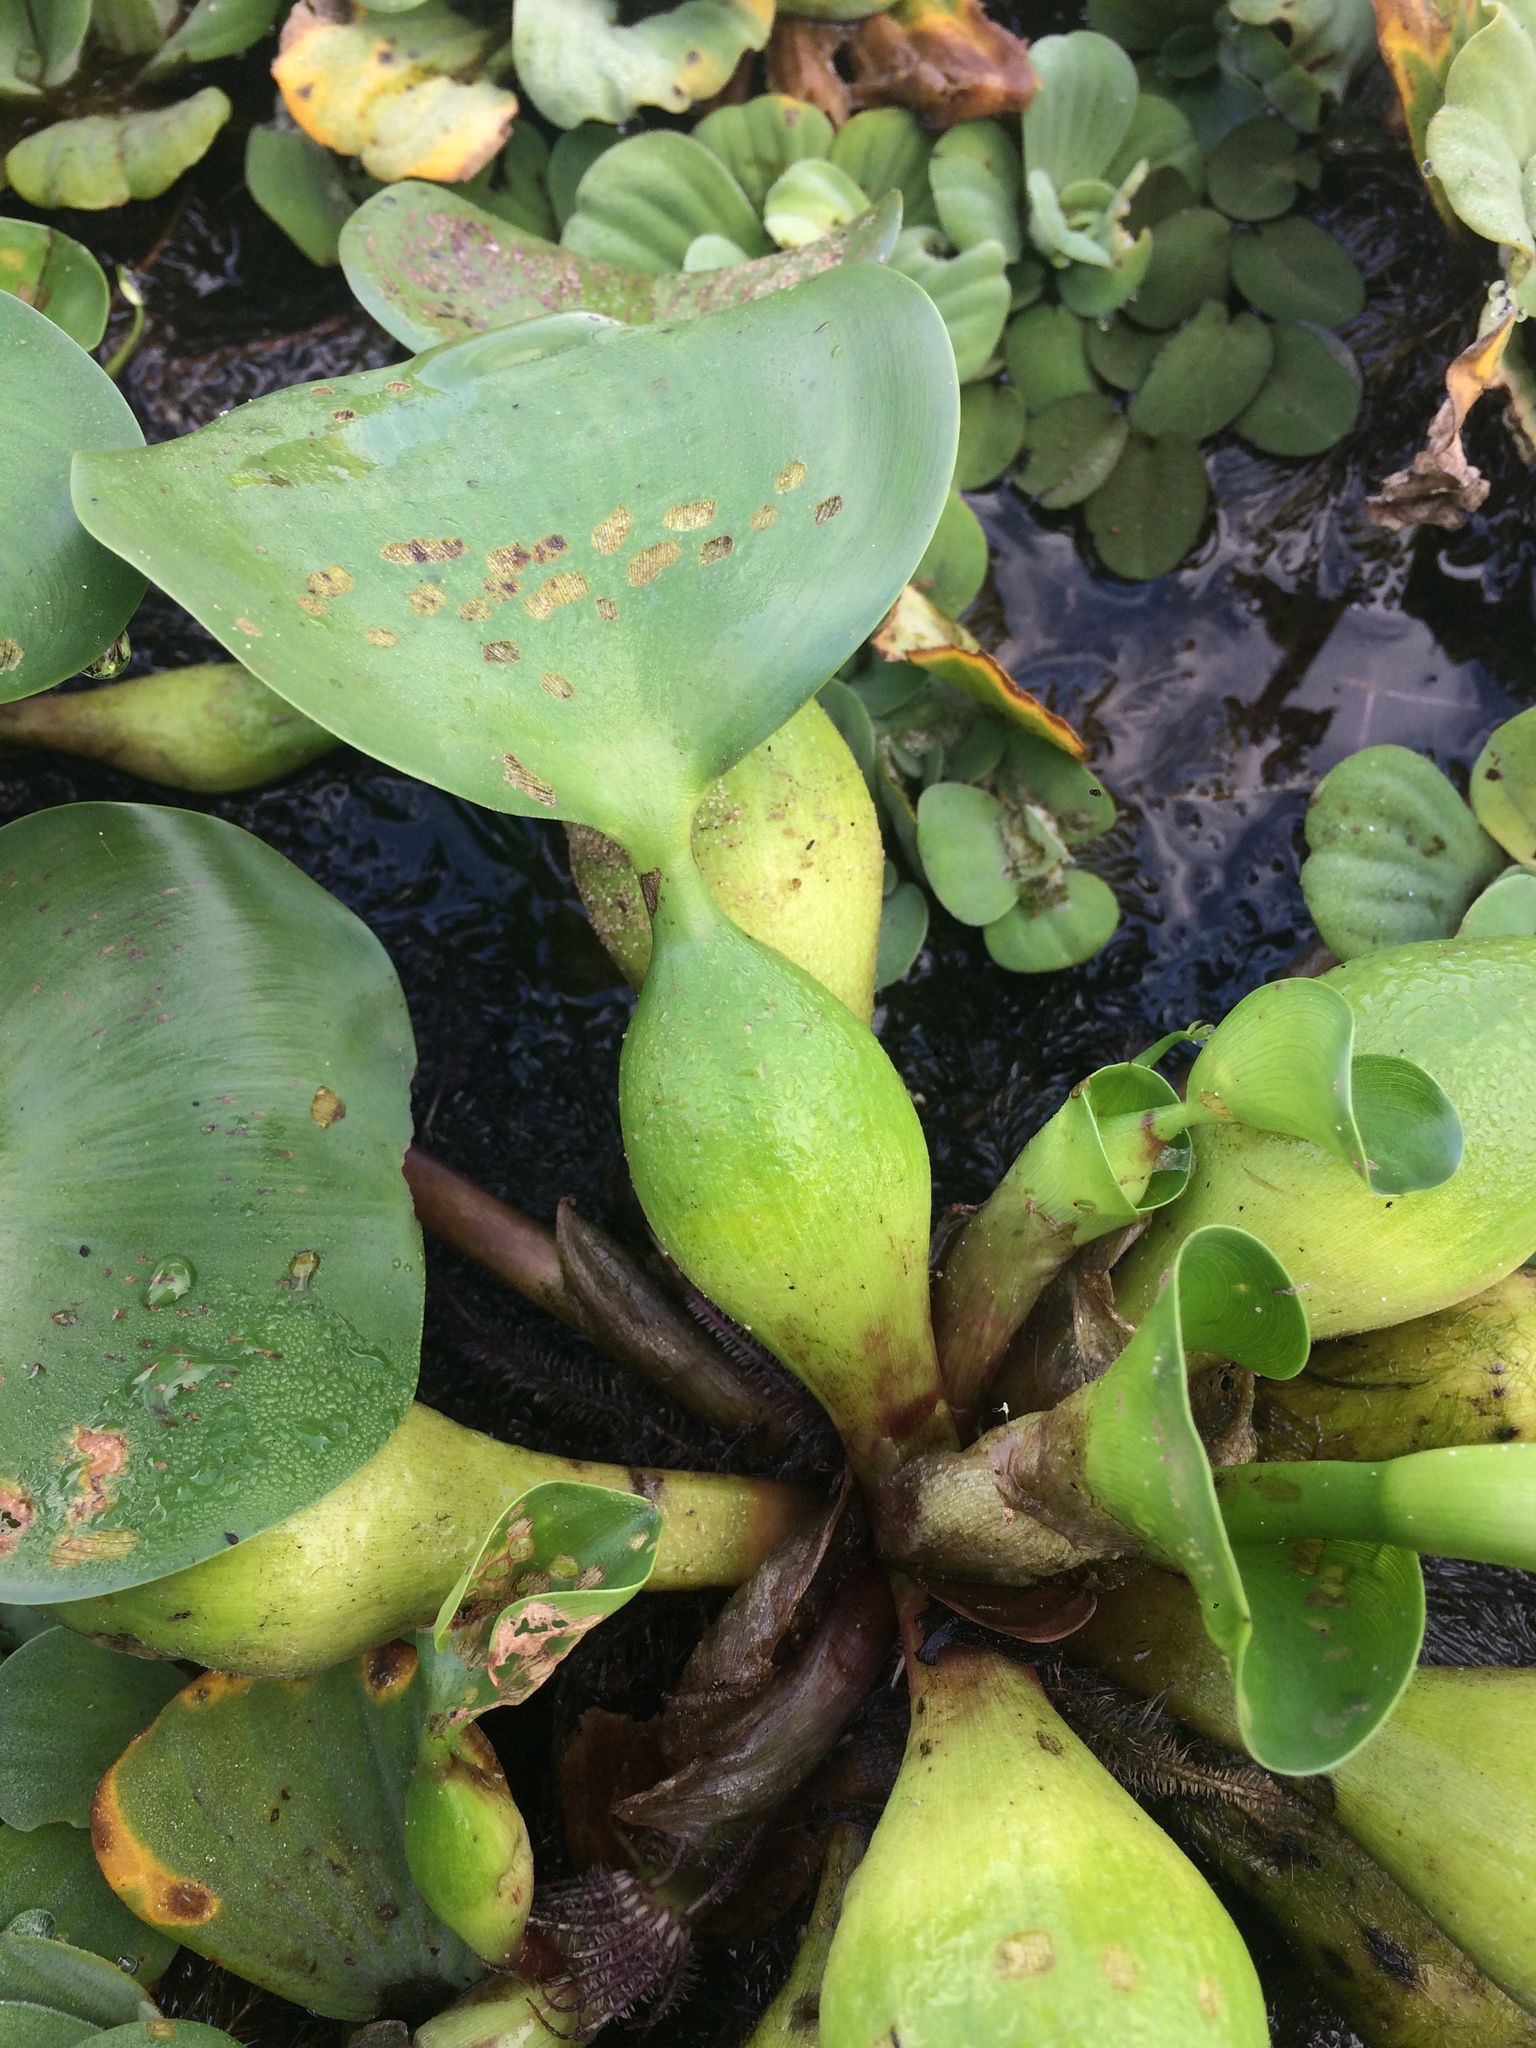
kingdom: Plantae
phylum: Tracheophyta
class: Liliopsida
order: Commelinales
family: Pontederiaceae
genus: Pontederia
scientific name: Pontederia crassipes
